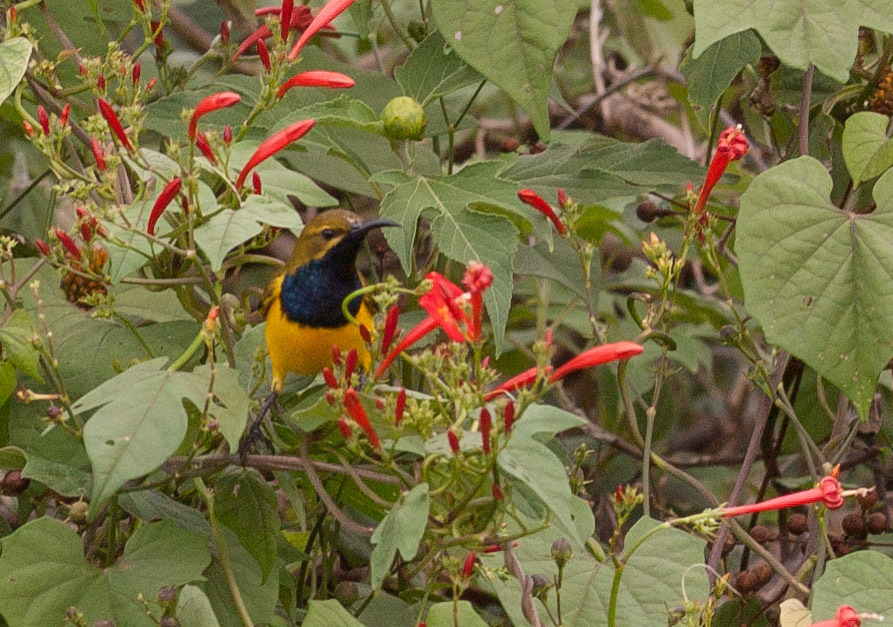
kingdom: Animalia
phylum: Chordata
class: Aves
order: Passeriformes
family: Nectariniidae
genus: Cinnyris
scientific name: Cinnyris
